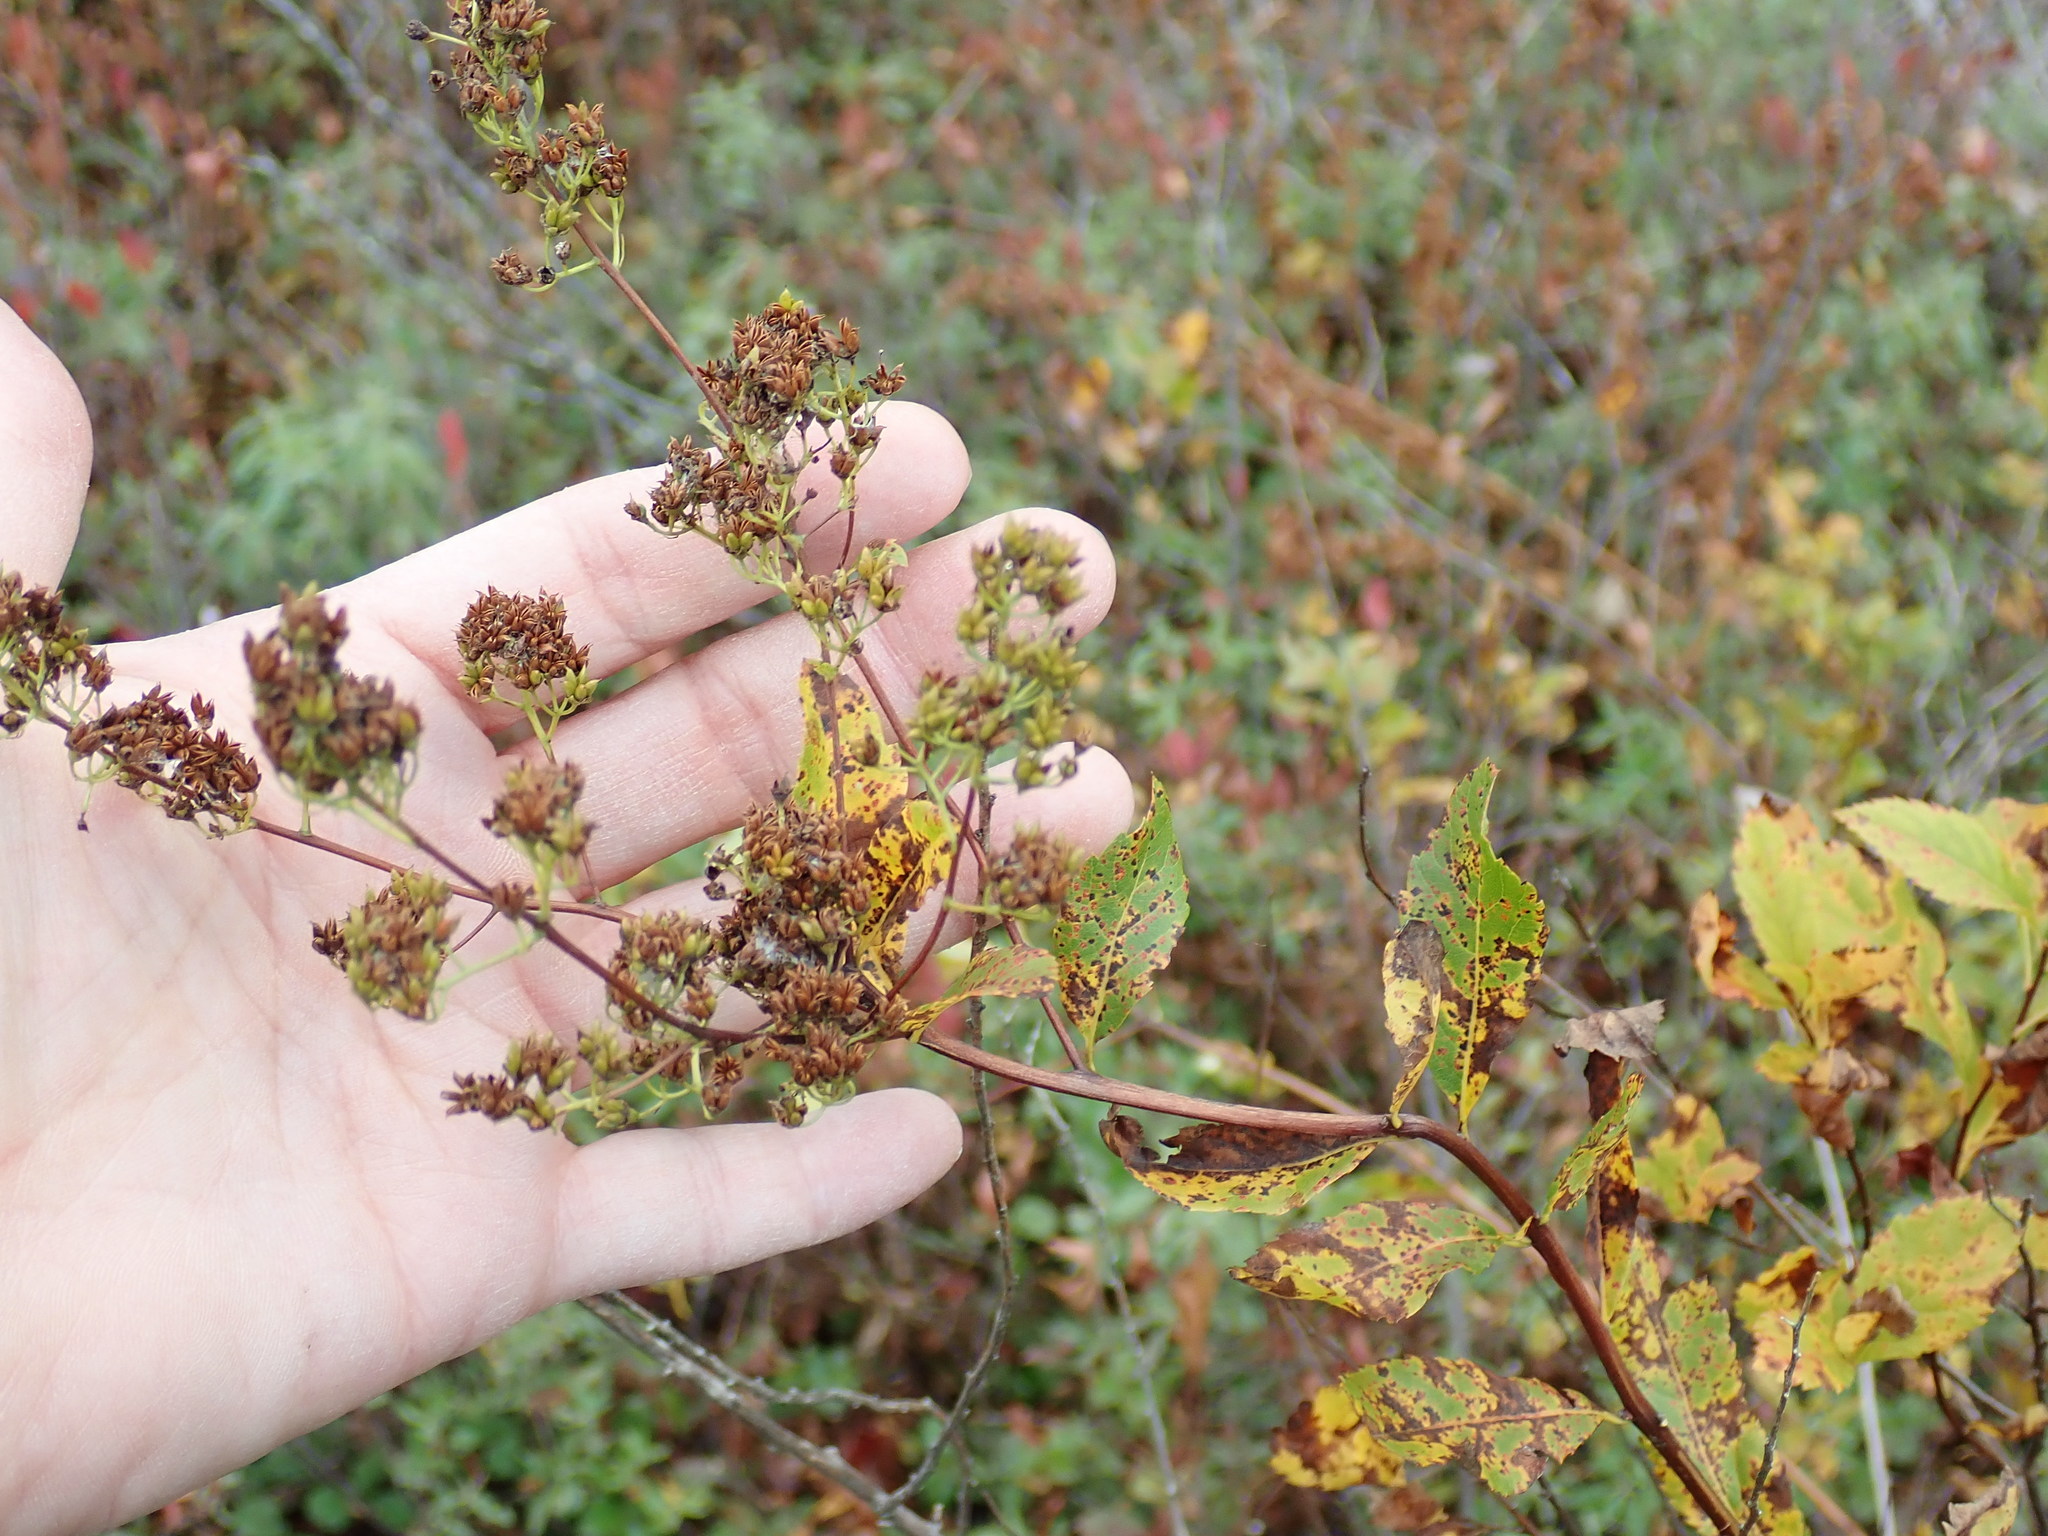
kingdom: Plantae
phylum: Tracheophyta
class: Magnoliopsida
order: Rosales
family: Rosaceae
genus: Spiraea
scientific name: Spiraea alba
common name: Pale bridewort
